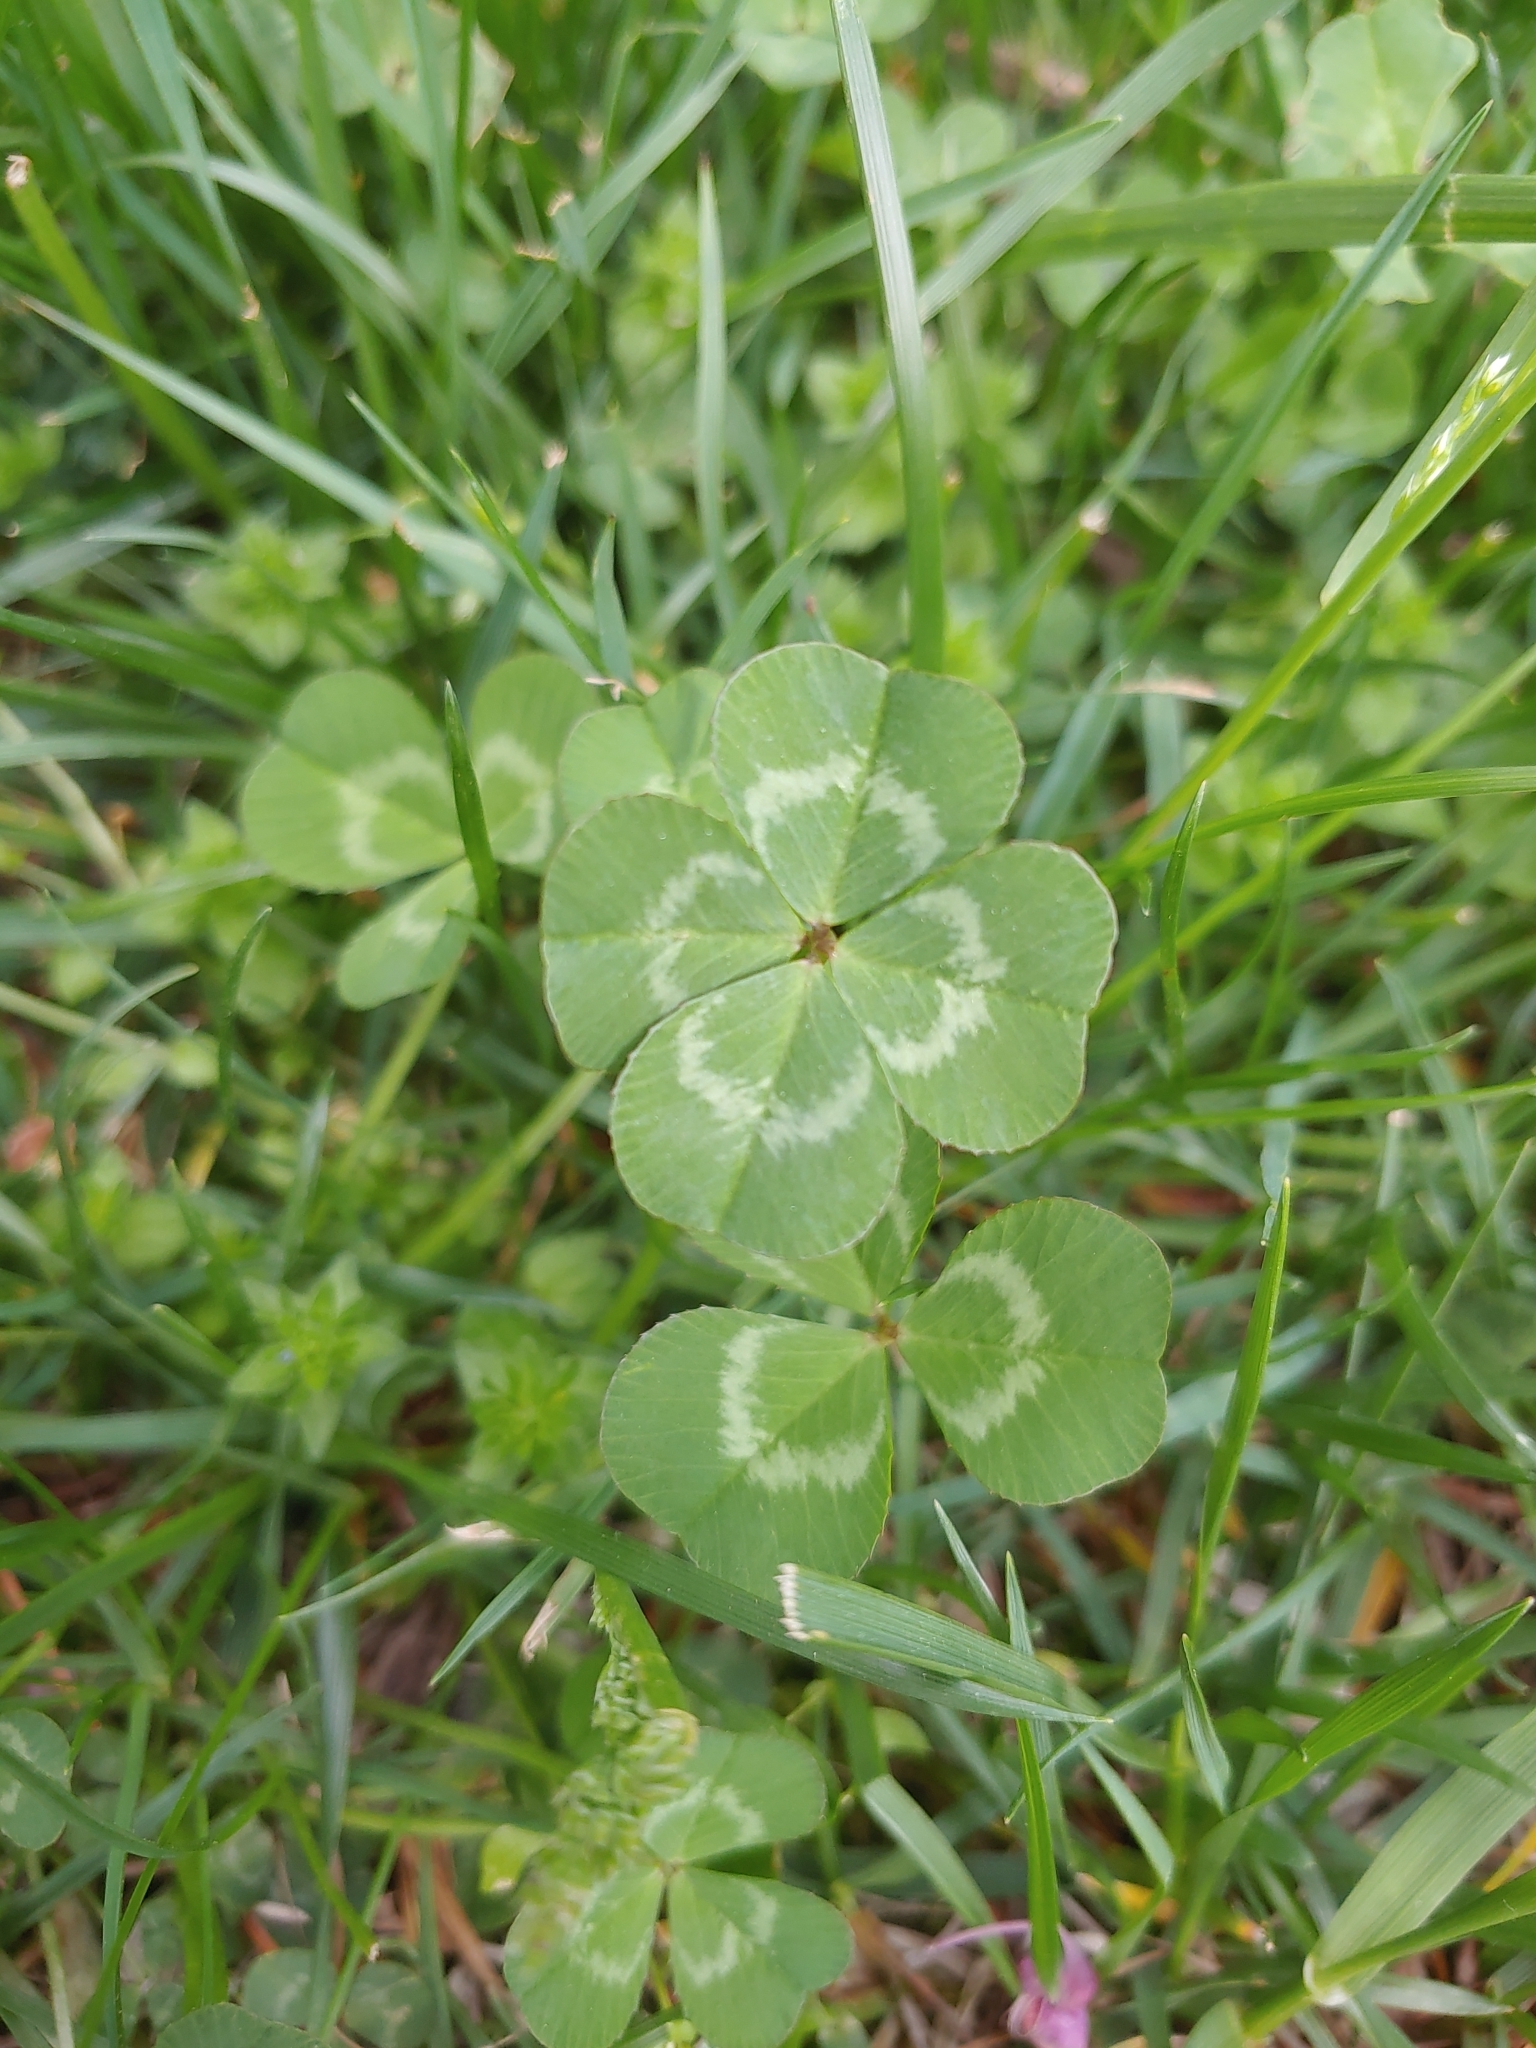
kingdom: Plantae
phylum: Tracheophyta
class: Magnoliopsida
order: Fabales
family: Fabaceae
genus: Trifolium
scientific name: Trifolium repens
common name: White clover
